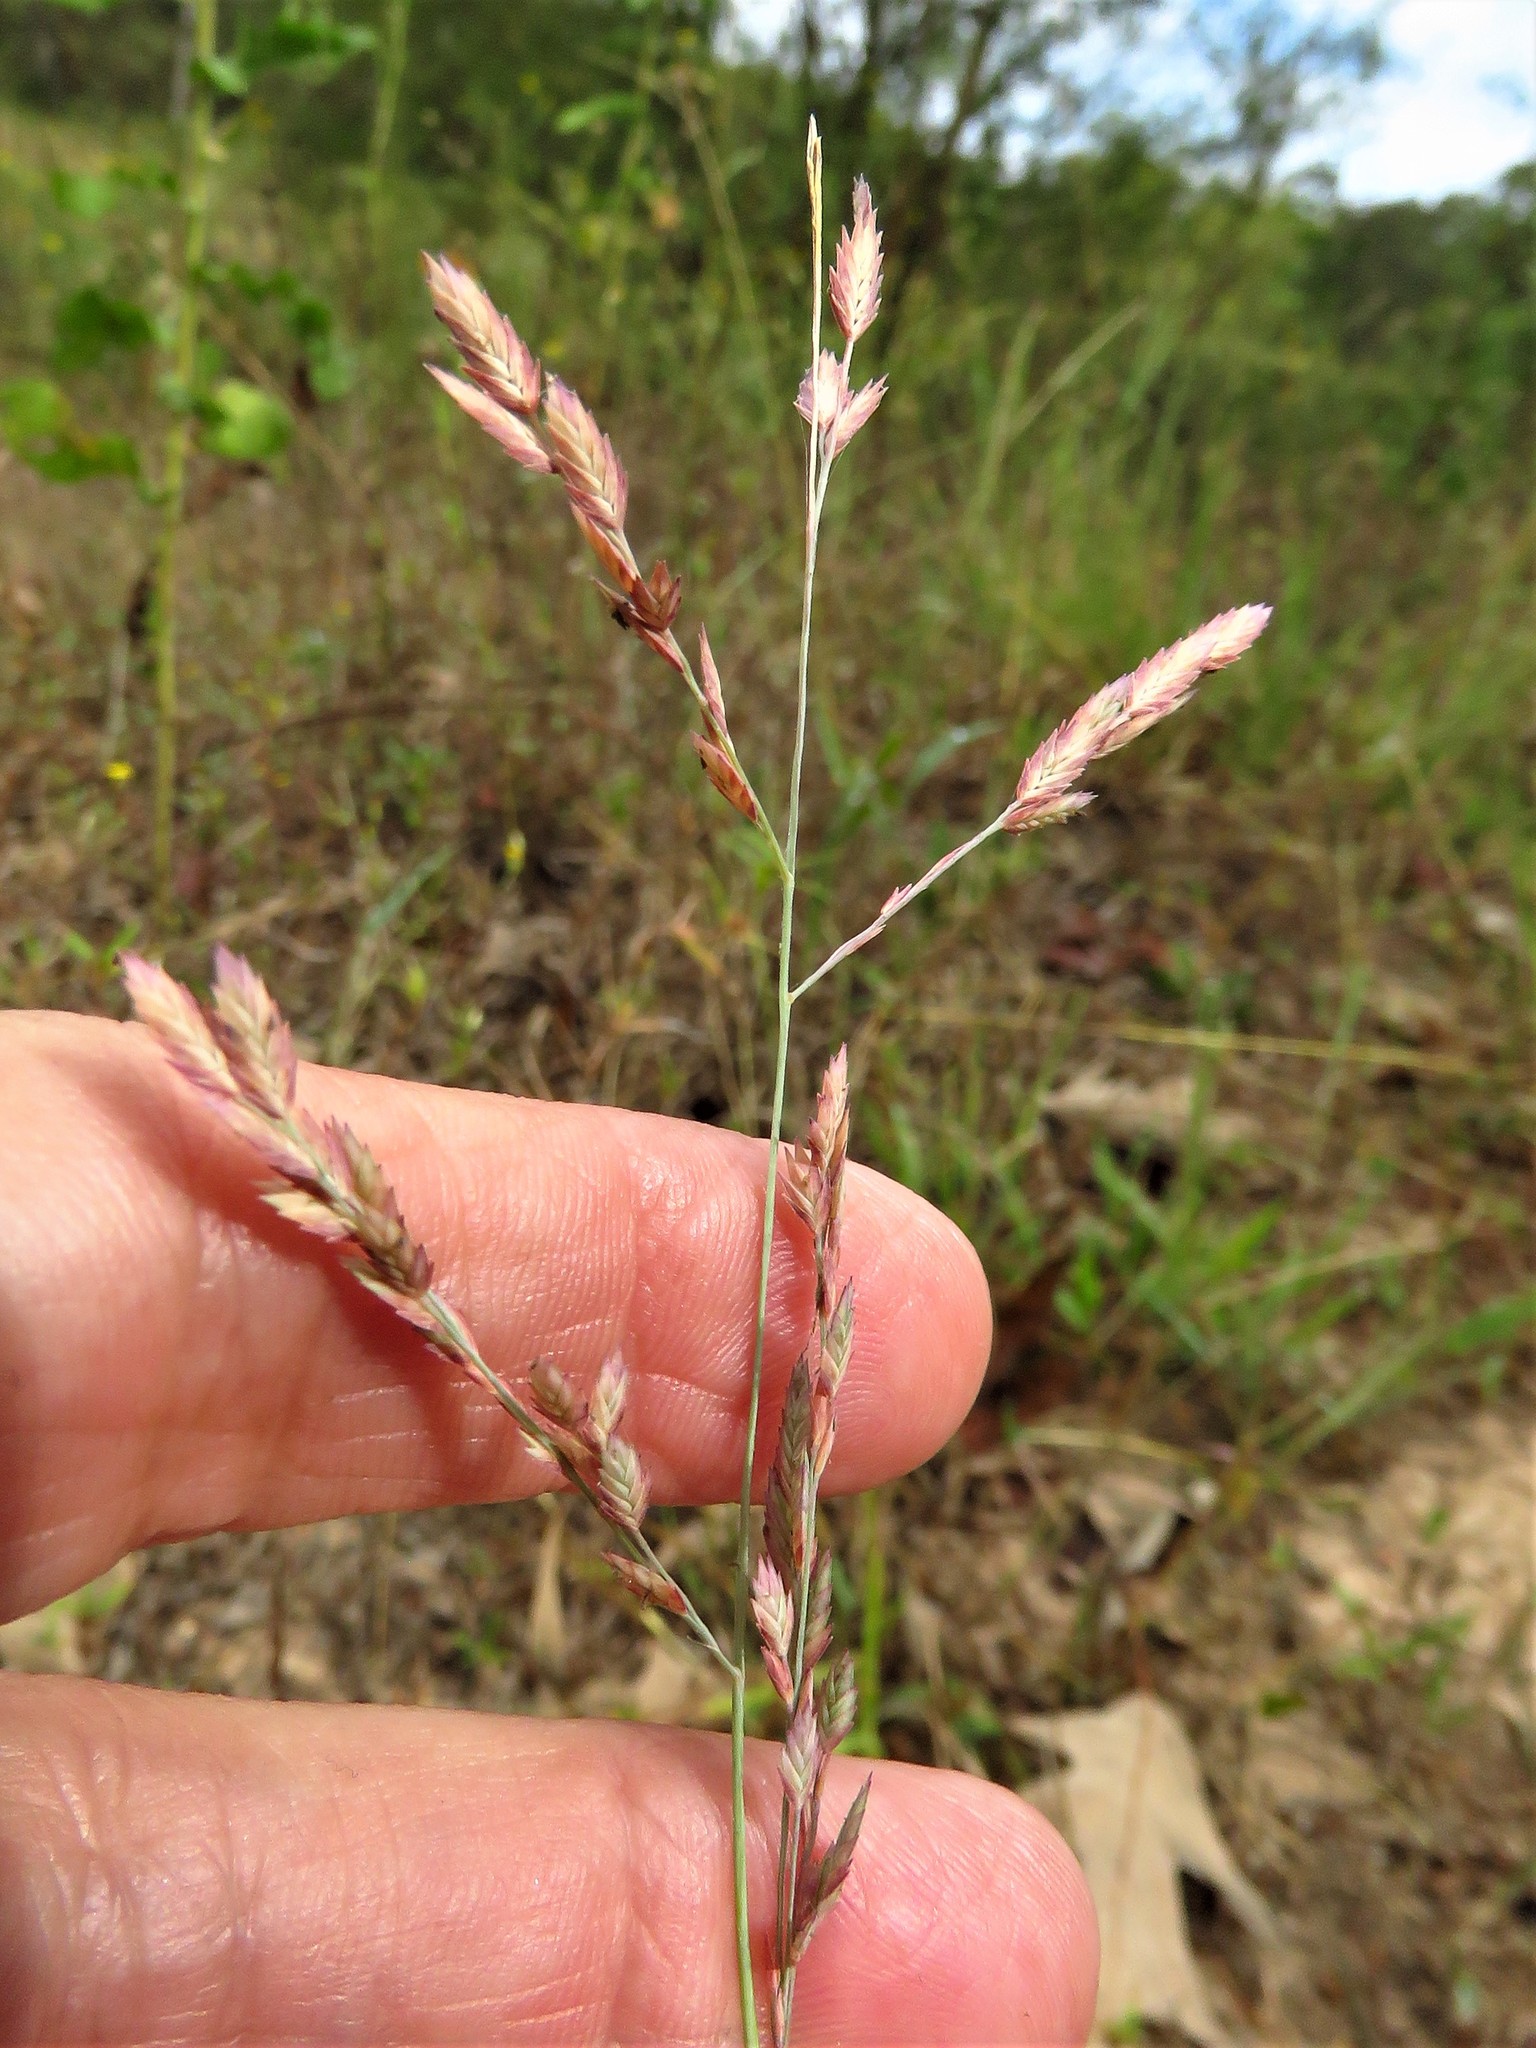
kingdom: Plantae
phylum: Tracheophyta
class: Liliopsida
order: Poales
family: Poaceae
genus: Eragrostis
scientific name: Eragrostis secundiflora
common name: Red love grass
